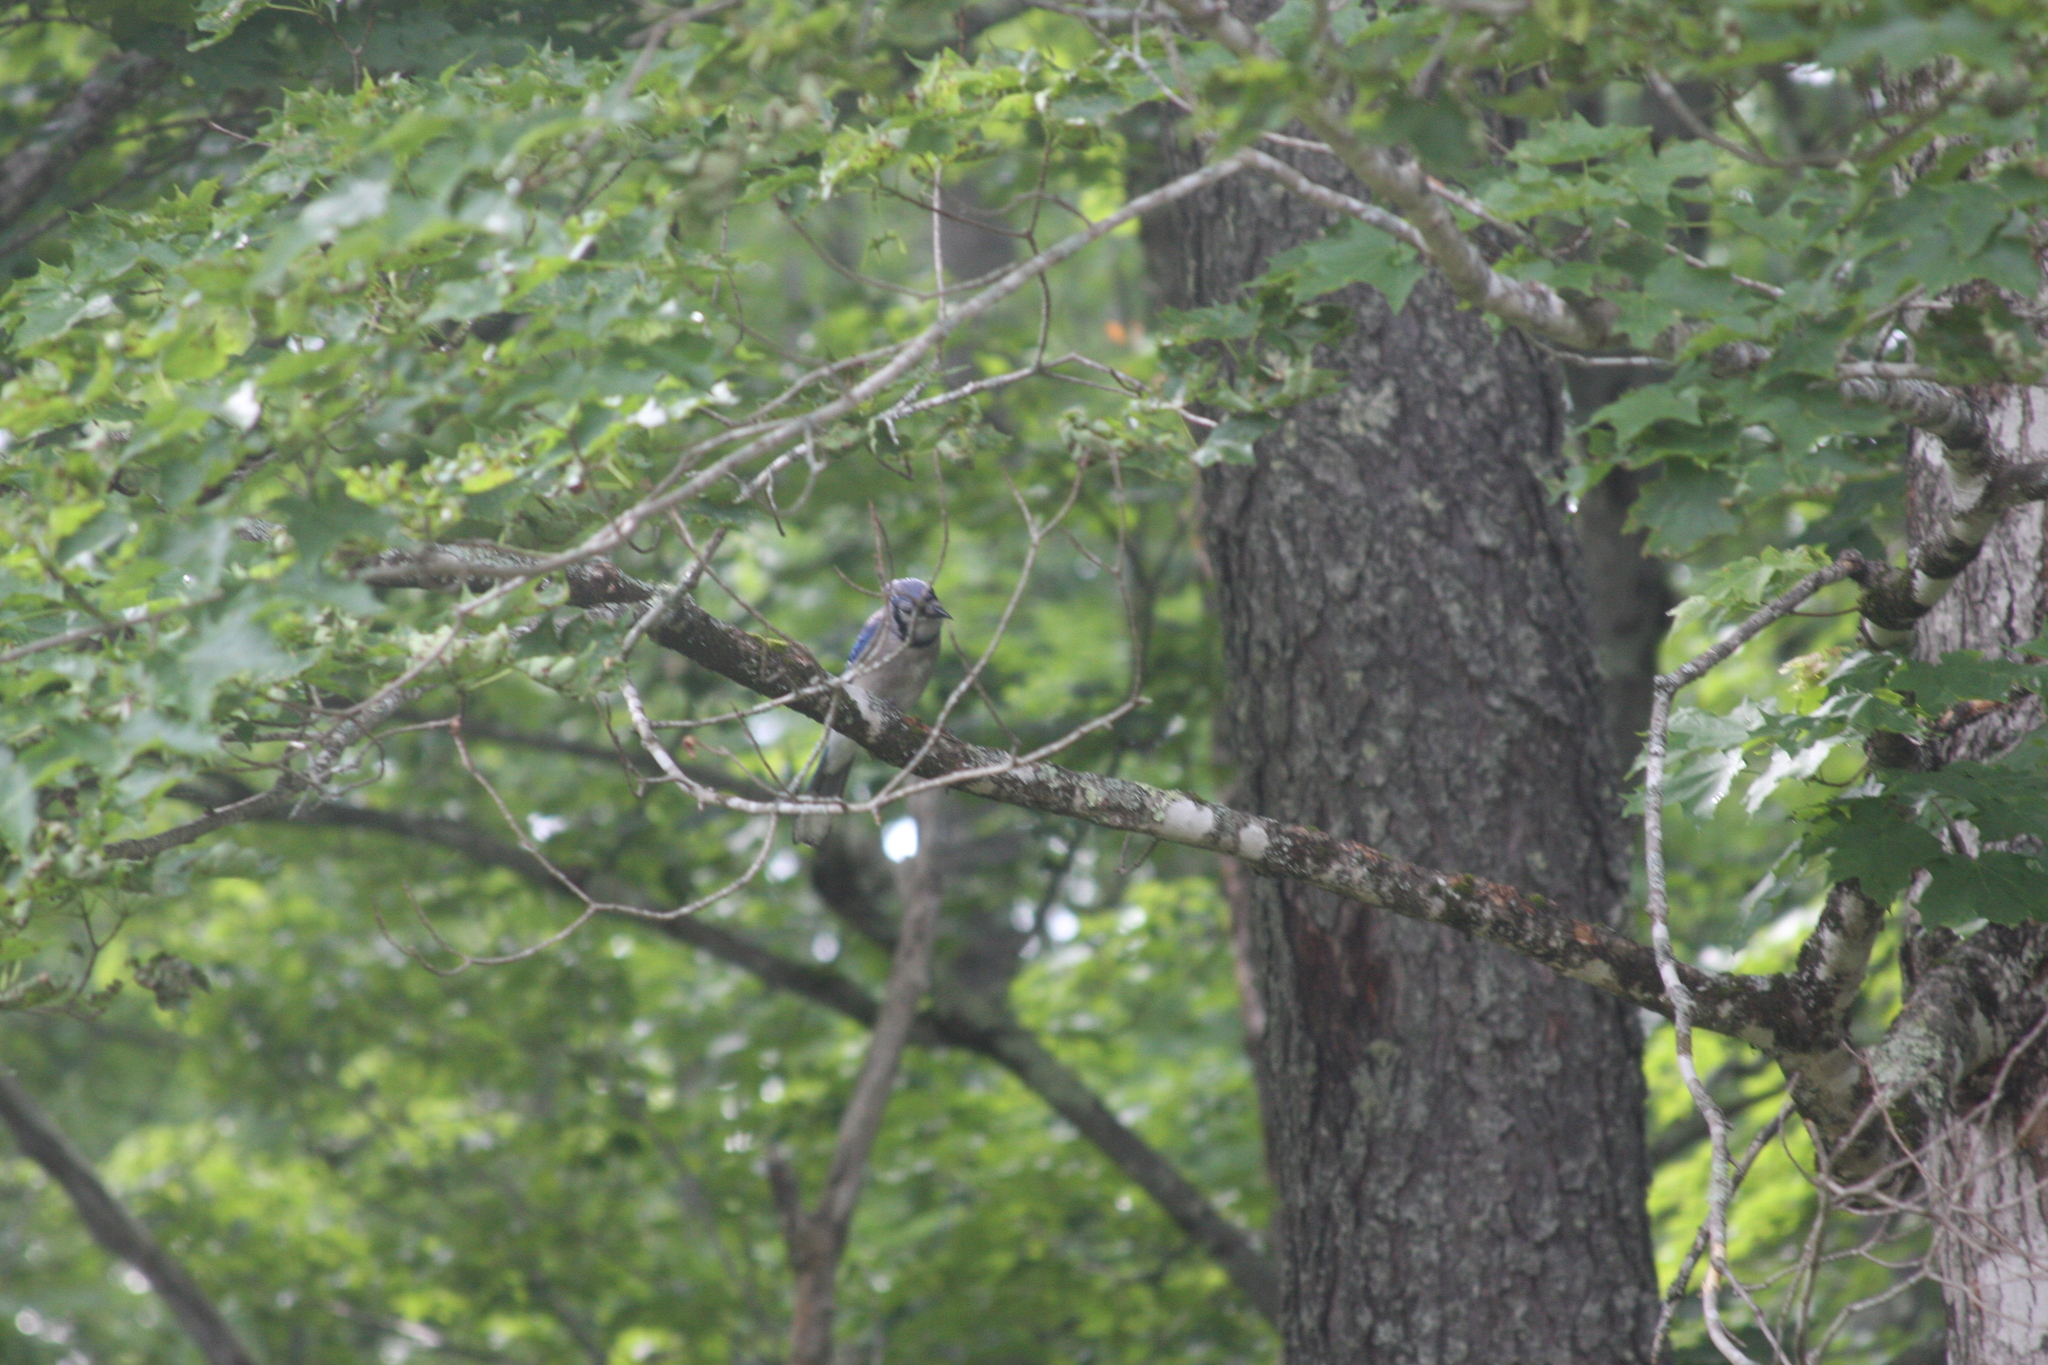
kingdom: Animalia
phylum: Chordata
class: Aves
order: Passeriformes
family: Corvidae
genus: Cyanocitta
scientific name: Cyanocitta cristata
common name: Blue jay
